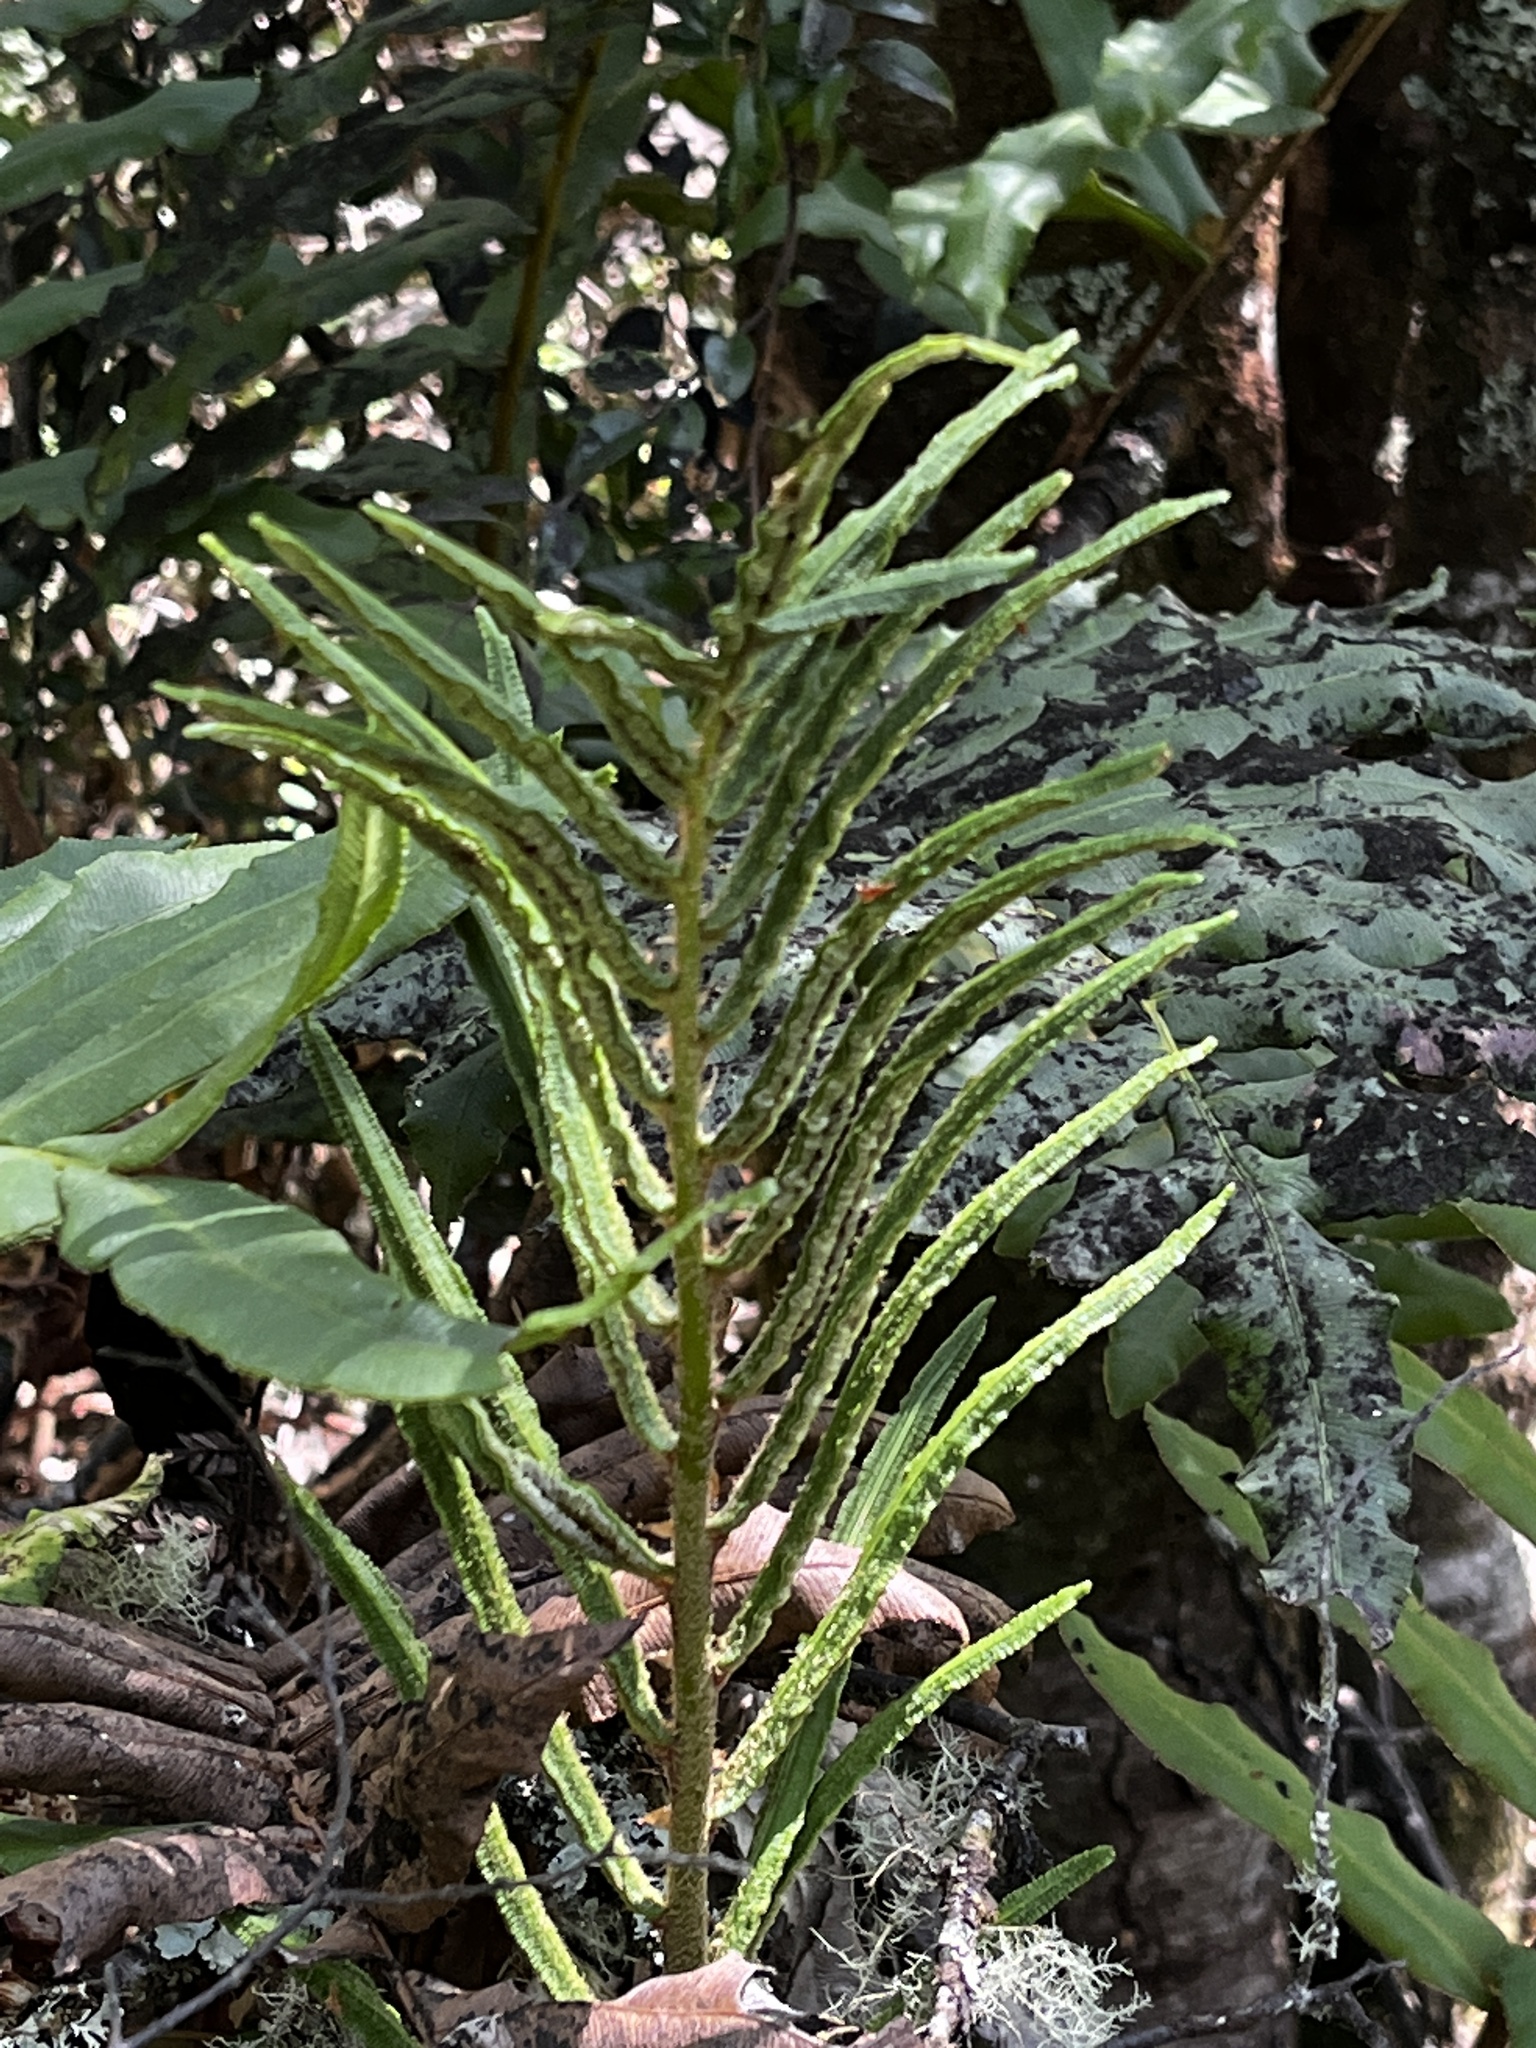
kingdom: Plantae
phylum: Tracheophyta
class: Polypodiopsida
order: Polypodiales
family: Blechnaceae
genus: Parablechnum
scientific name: Parablechnum chilense
